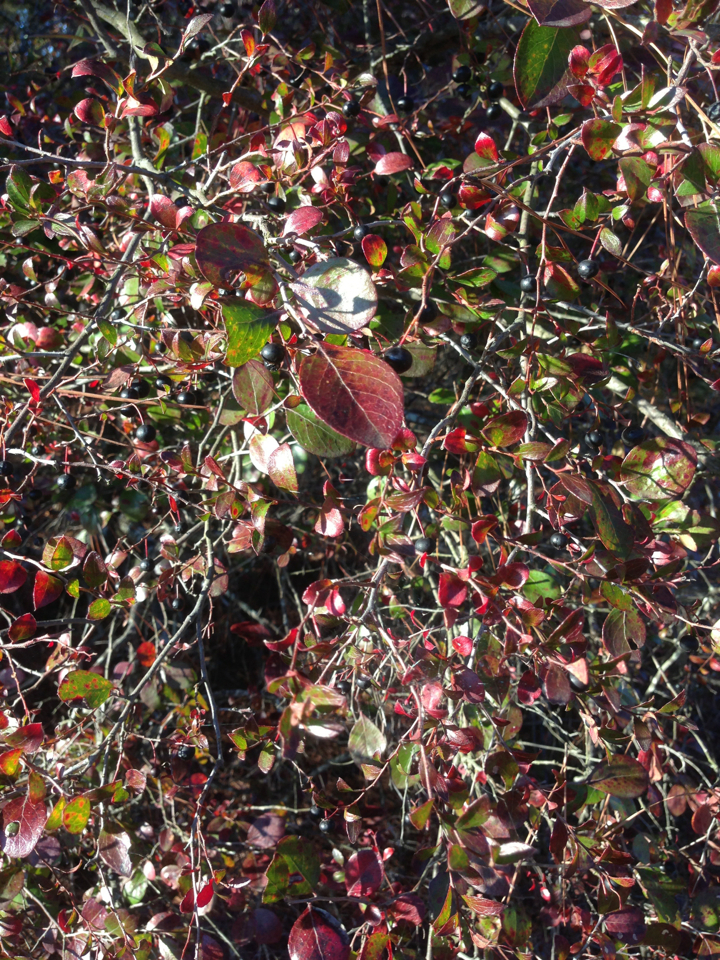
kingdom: Plantae
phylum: Tracheophyta
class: Magnoliopsida
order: Ericales
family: Ericaceae
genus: Vaccinium
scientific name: Vaccinium arboreum
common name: Farkleberry
